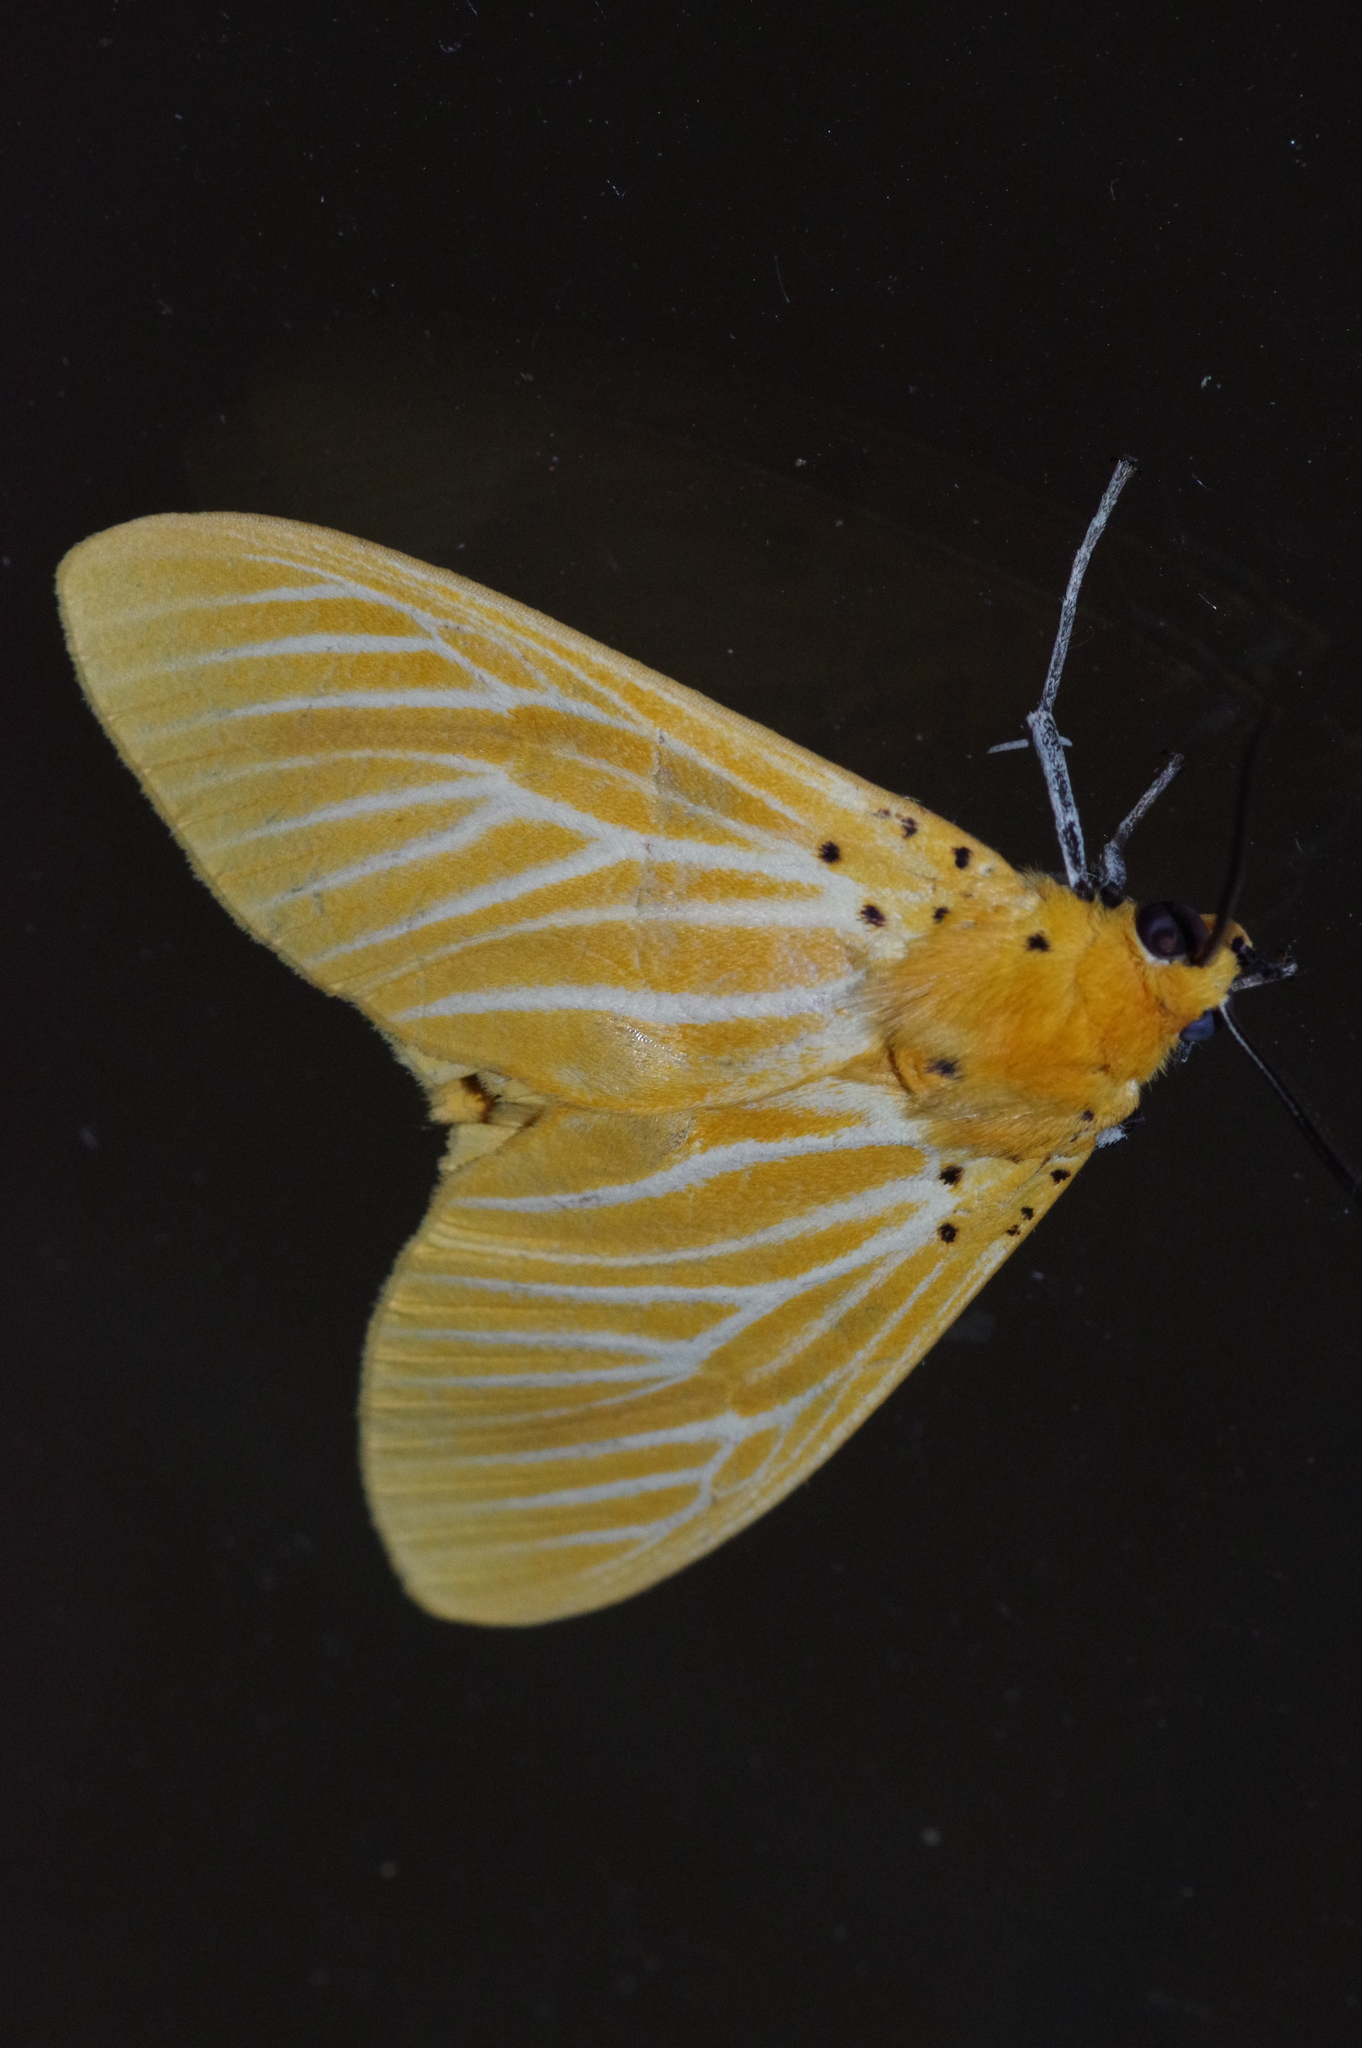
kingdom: Animalia
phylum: Arthropoda
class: Insecta
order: Lepidoptera
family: Erebidae
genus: Asota
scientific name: Asota egens
